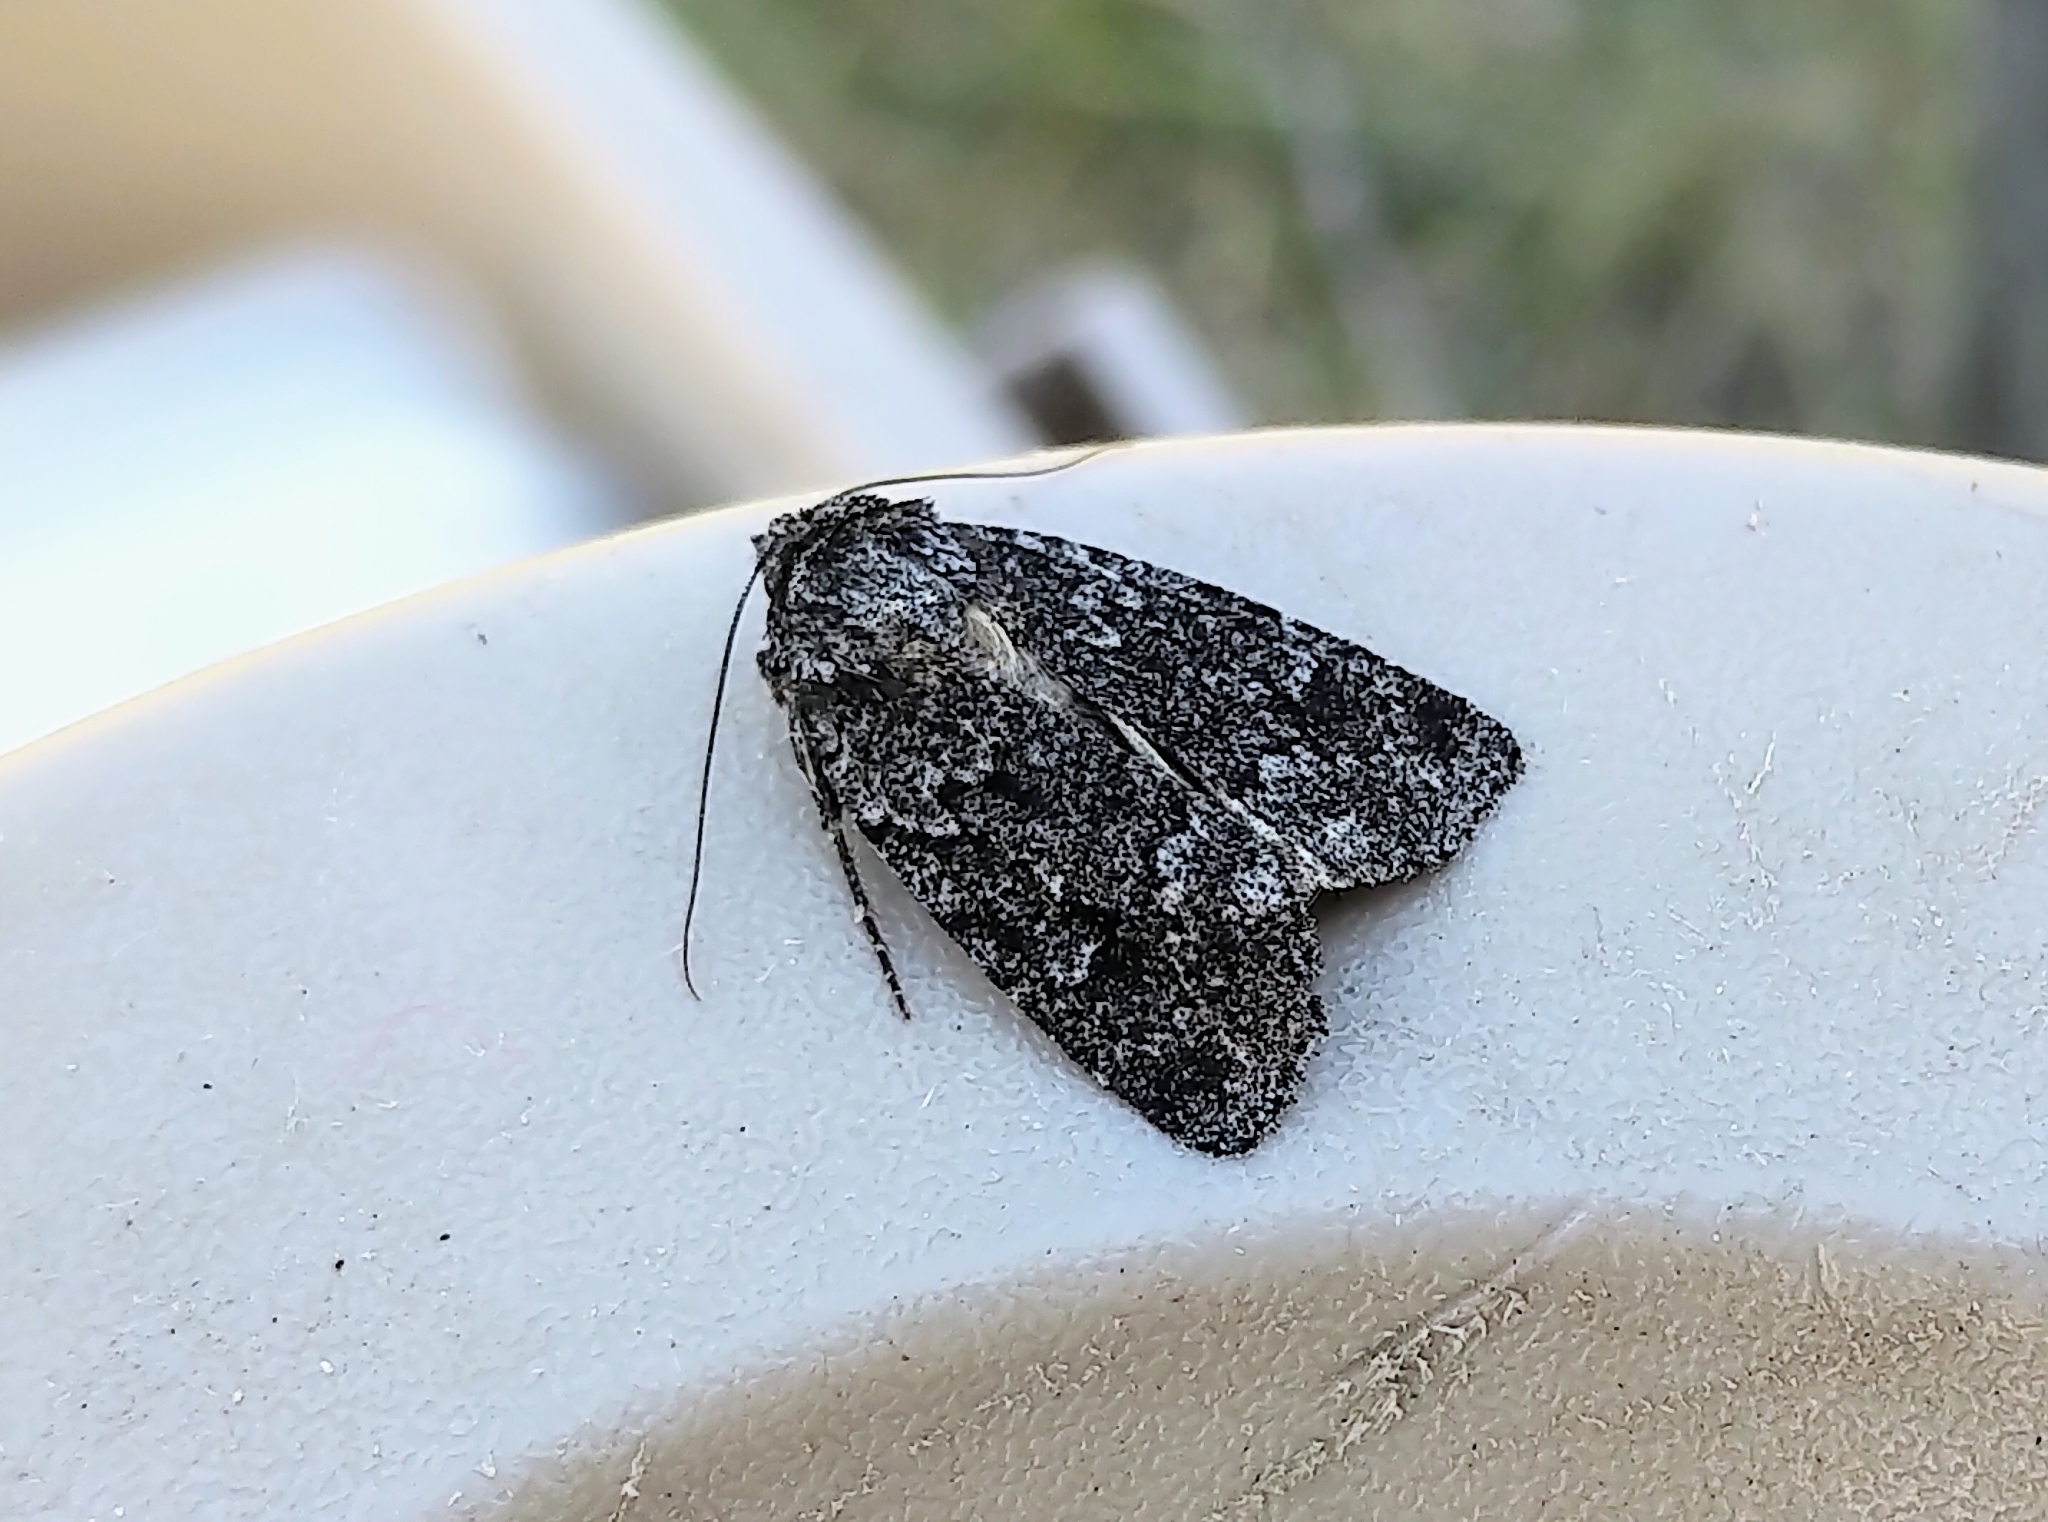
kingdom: Animalia
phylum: Arthropoda
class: Insecta
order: Lepidoptera
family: Noctuidae
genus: Sympistis
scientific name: Sympistis dentata
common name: Blueberry sallow
